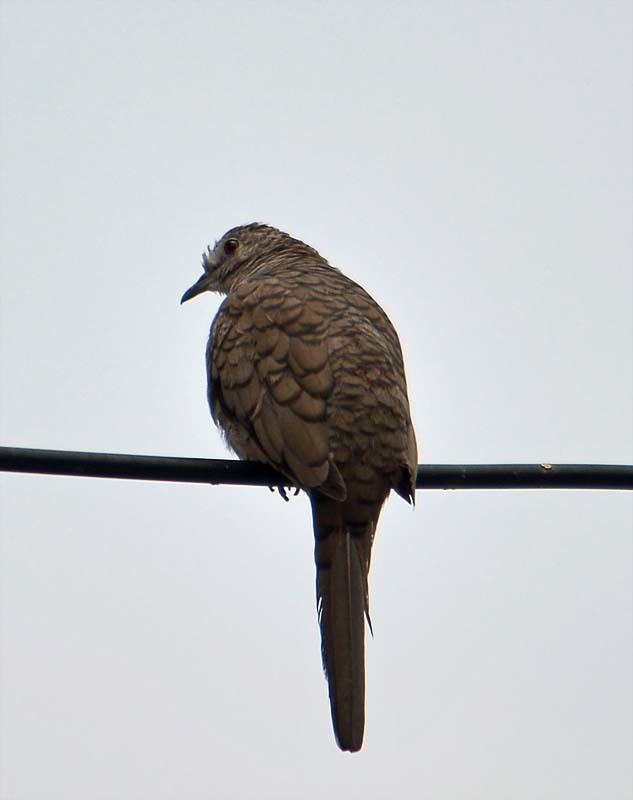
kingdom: Animalia
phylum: Chordata
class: Aves
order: Columbiformes
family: Columbidae
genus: Columbina
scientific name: Columbina inca
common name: Inca dove
